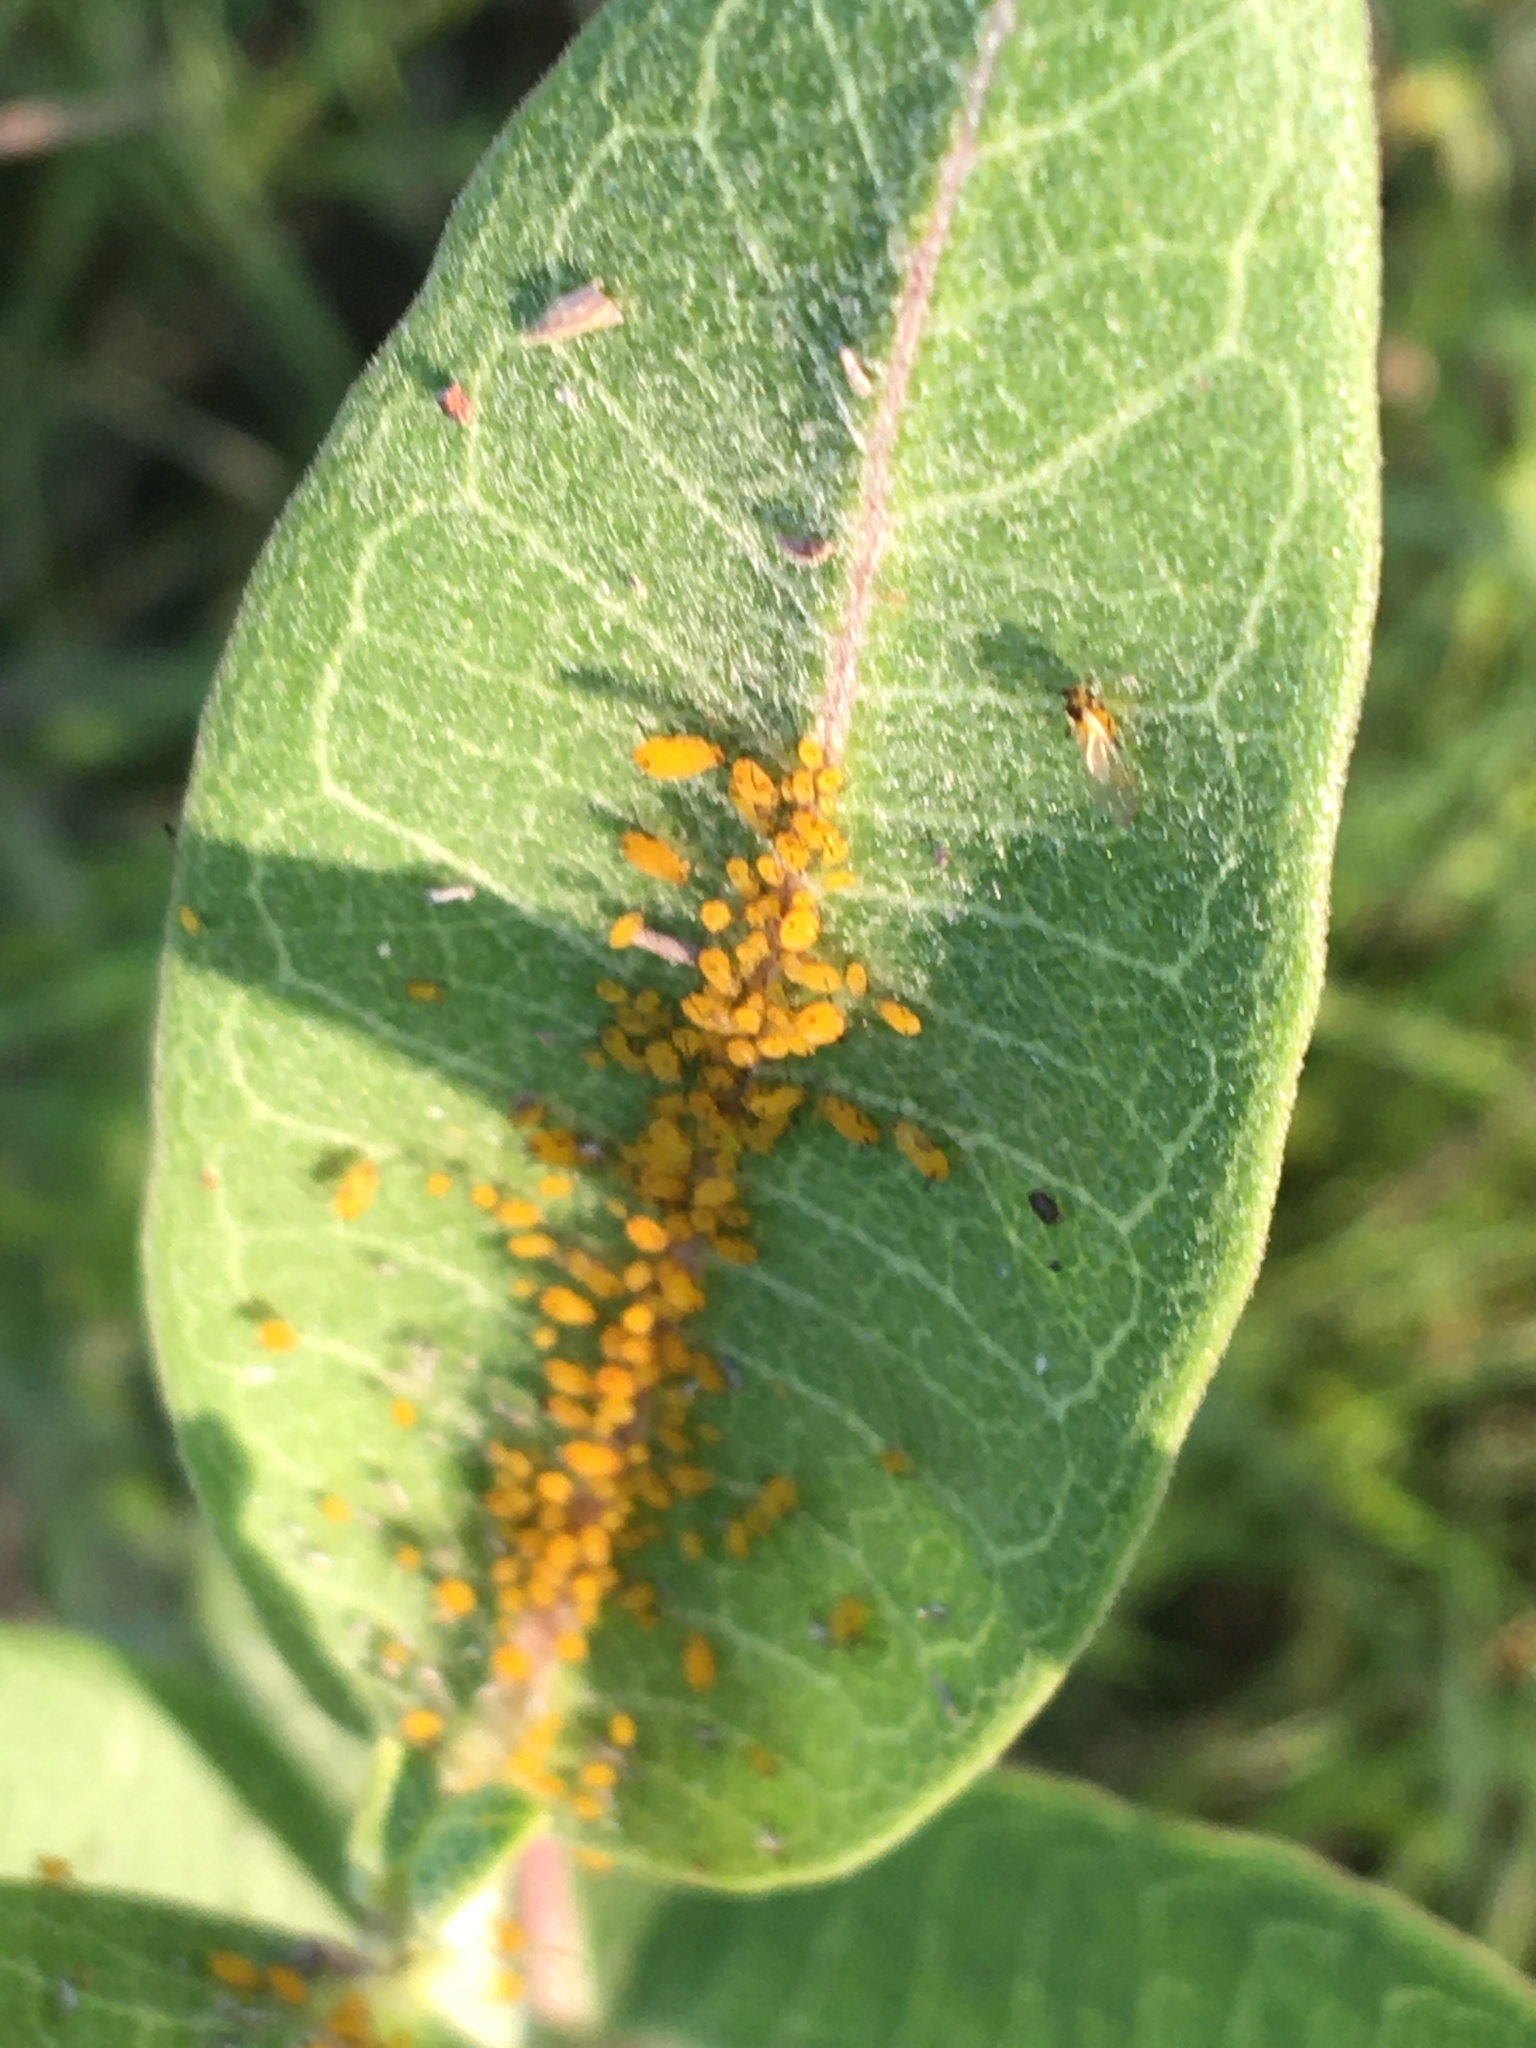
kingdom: Animalia
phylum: Arthropoda
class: Insecta
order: Hemiptera
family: Aphididae
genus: Aphis
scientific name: Aphis nerii
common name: Oleander aphid
